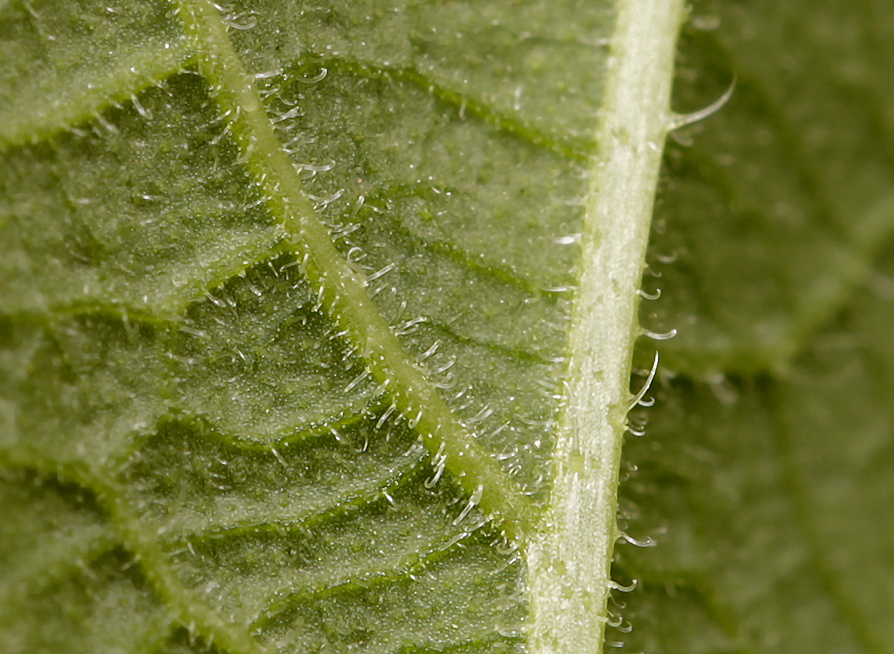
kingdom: Plantae
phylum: Tracheophyta
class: Magnoliopsida
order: Lamiales
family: Verbenaceae
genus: Priva
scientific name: Priva adhaerens
